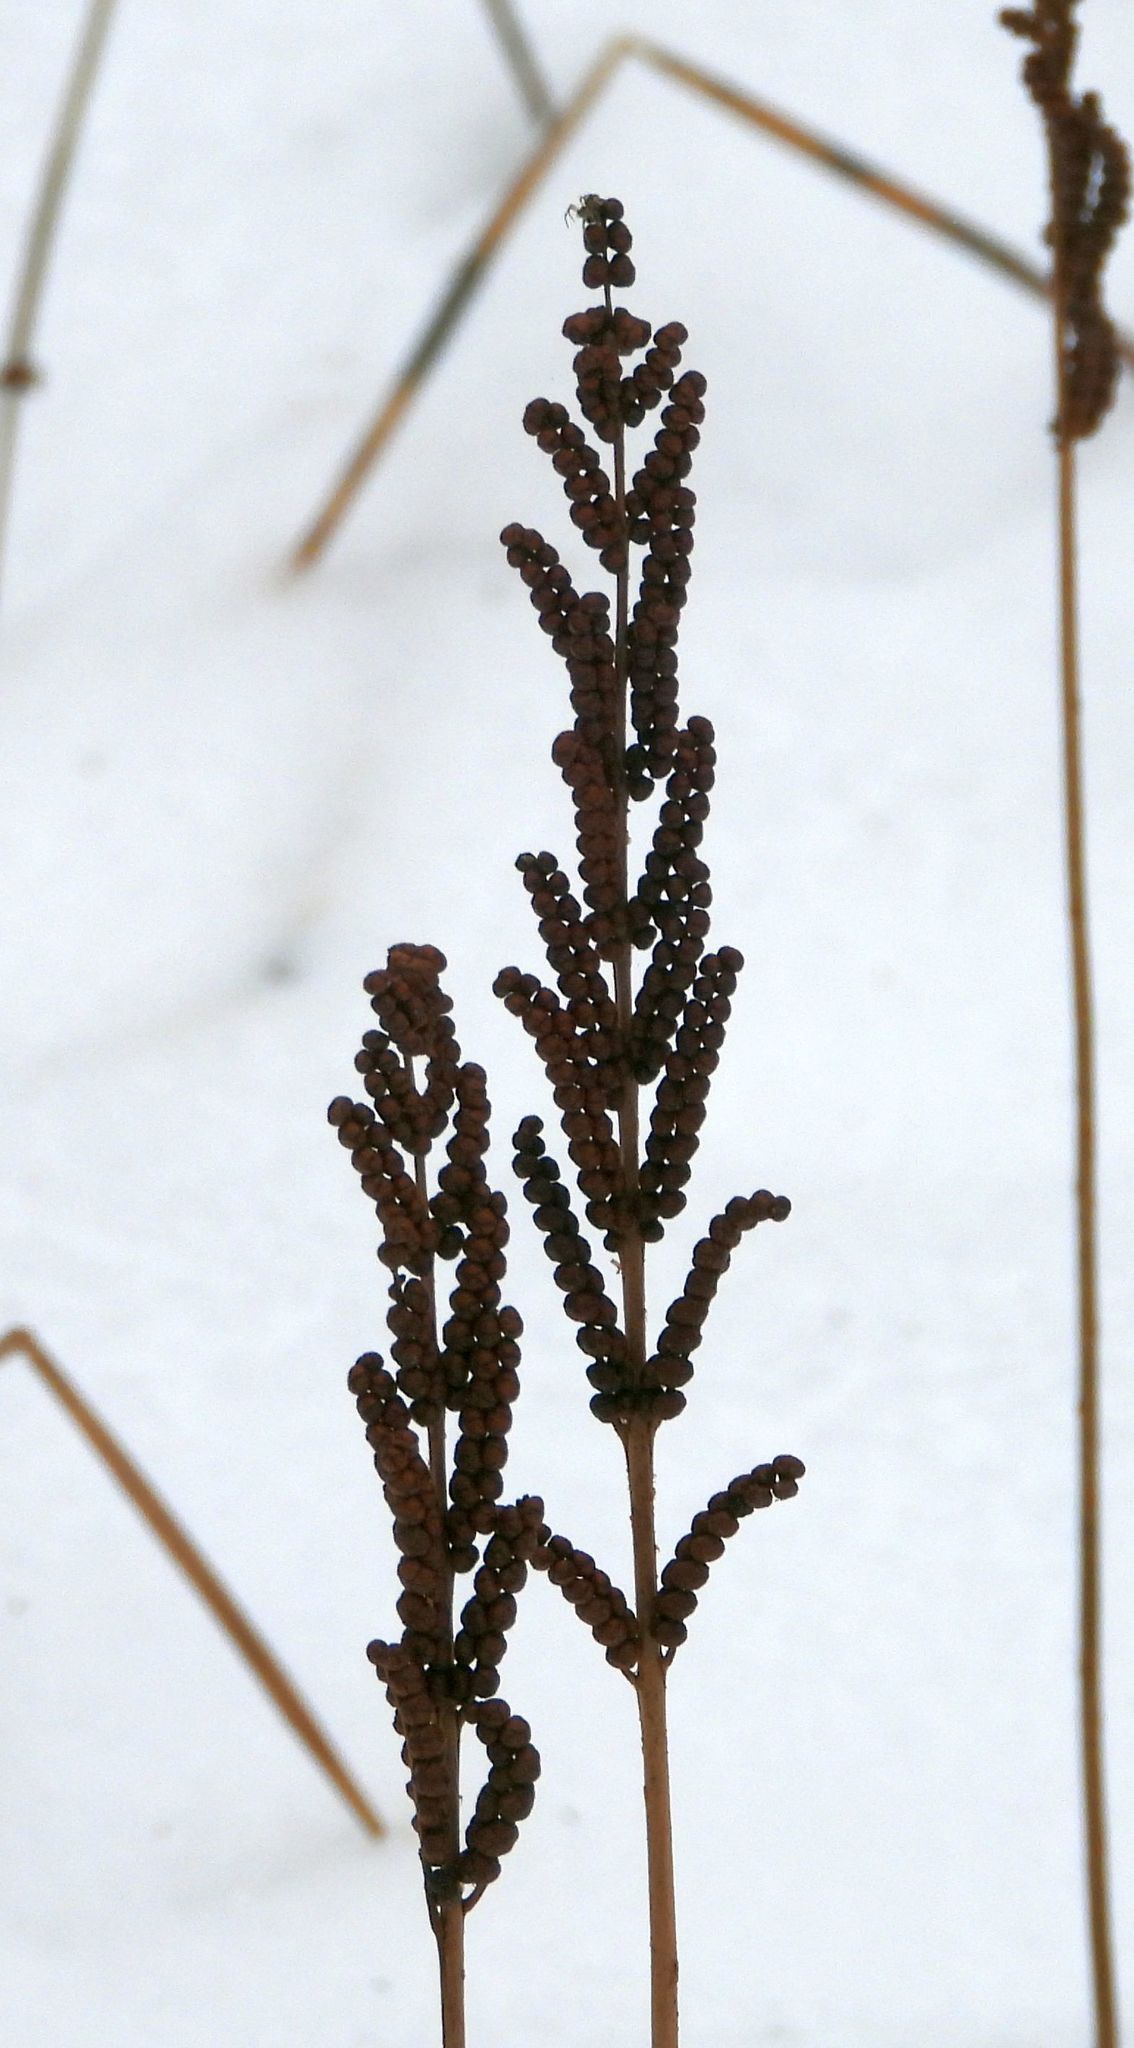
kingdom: Plantae
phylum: Tracheophyta
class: Polypodiopsida
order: Polypodiales
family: Onocleaceae
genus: Onoclea
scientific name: Onoclea sensibilis
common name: Sensitive fern
